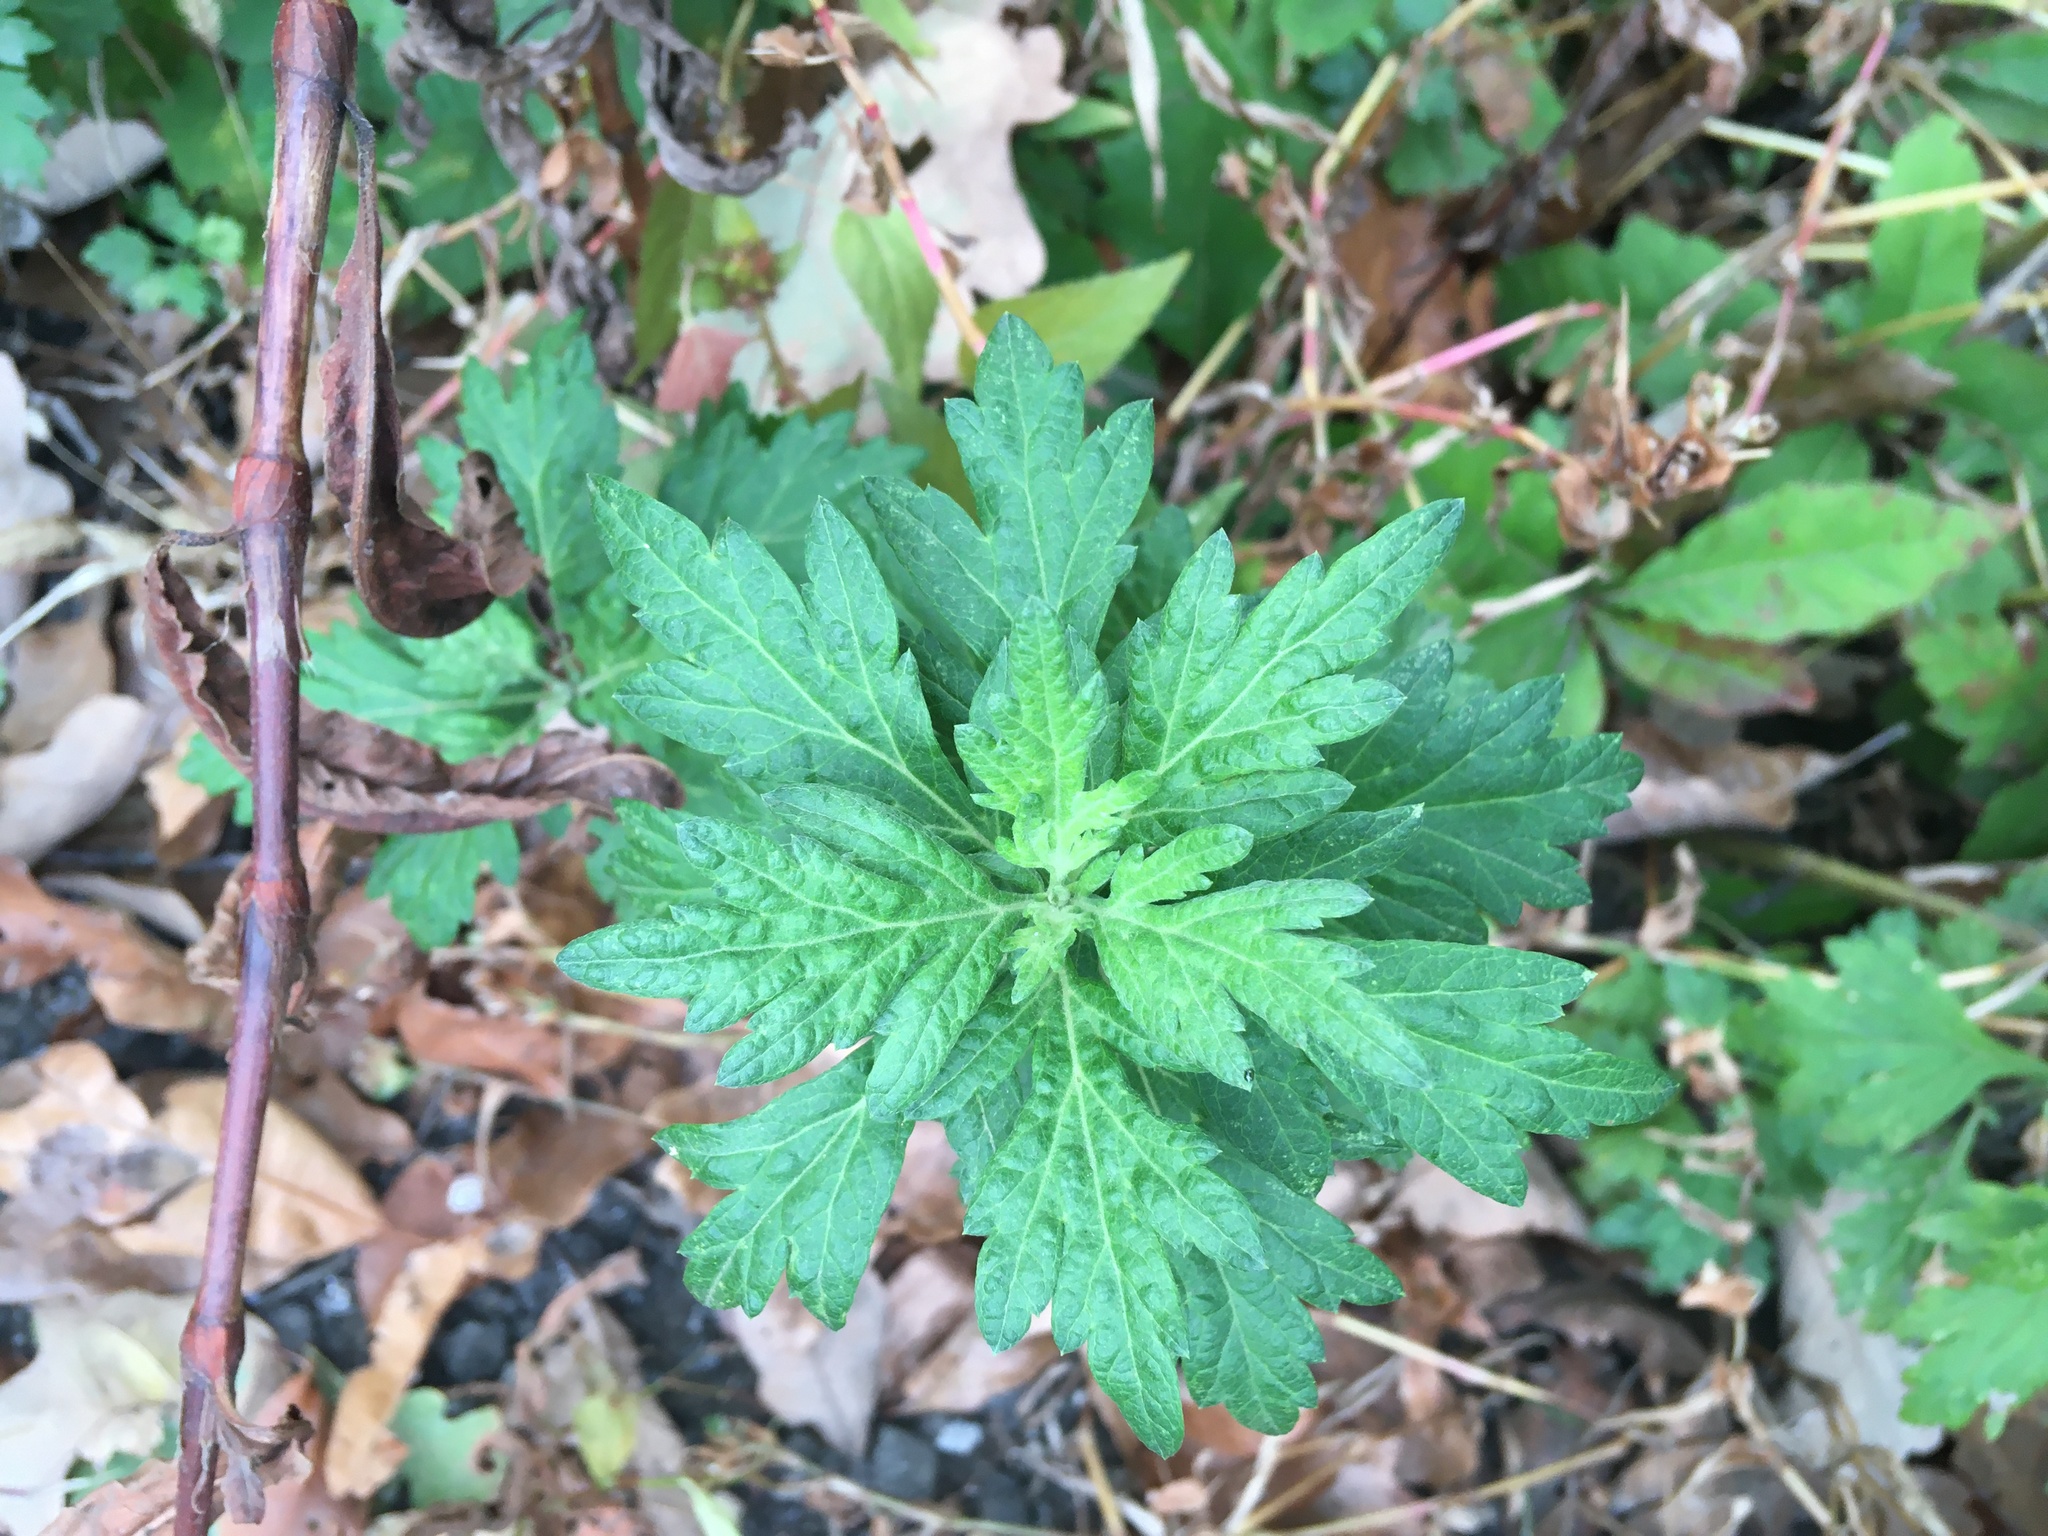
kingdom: Plantae
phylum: Tracheophyta
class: Magnoliopsida
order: Asterales
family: Asteraceae
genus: Artemisia
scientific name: Artemisia vulgaris
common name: Mugwort
